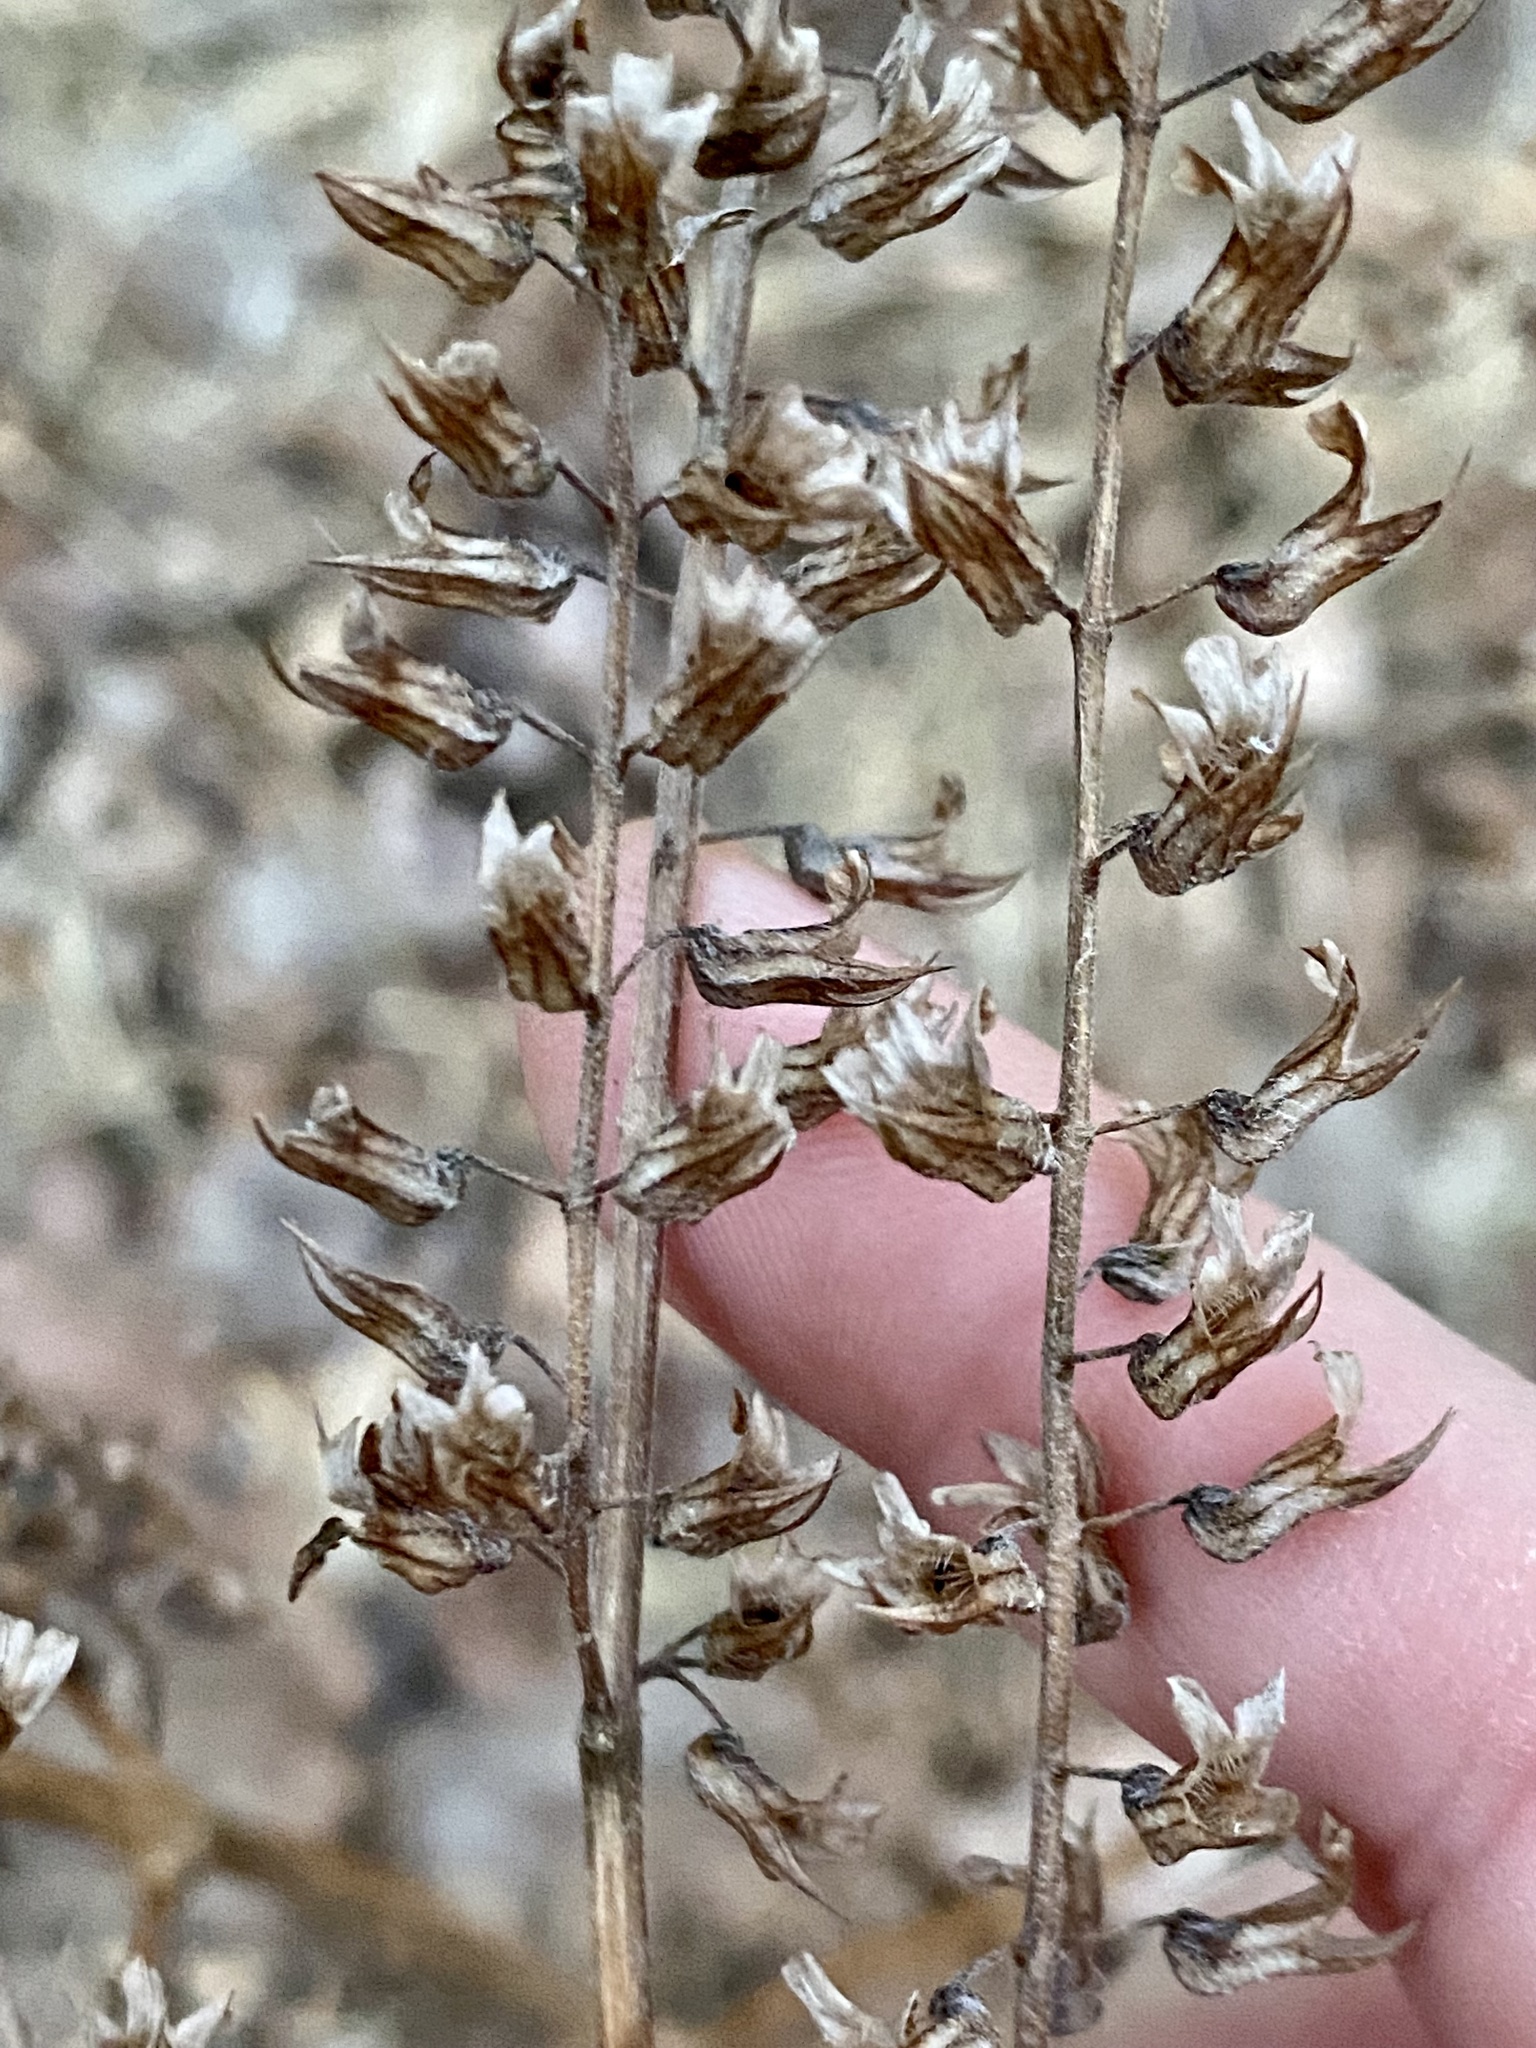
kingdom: Plantae
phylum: Tracheophyta
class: Magnoliopsida
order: Lamiales
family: Lamiaceae
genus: Perilla
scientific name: Perilla frutescens
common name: Perilla
